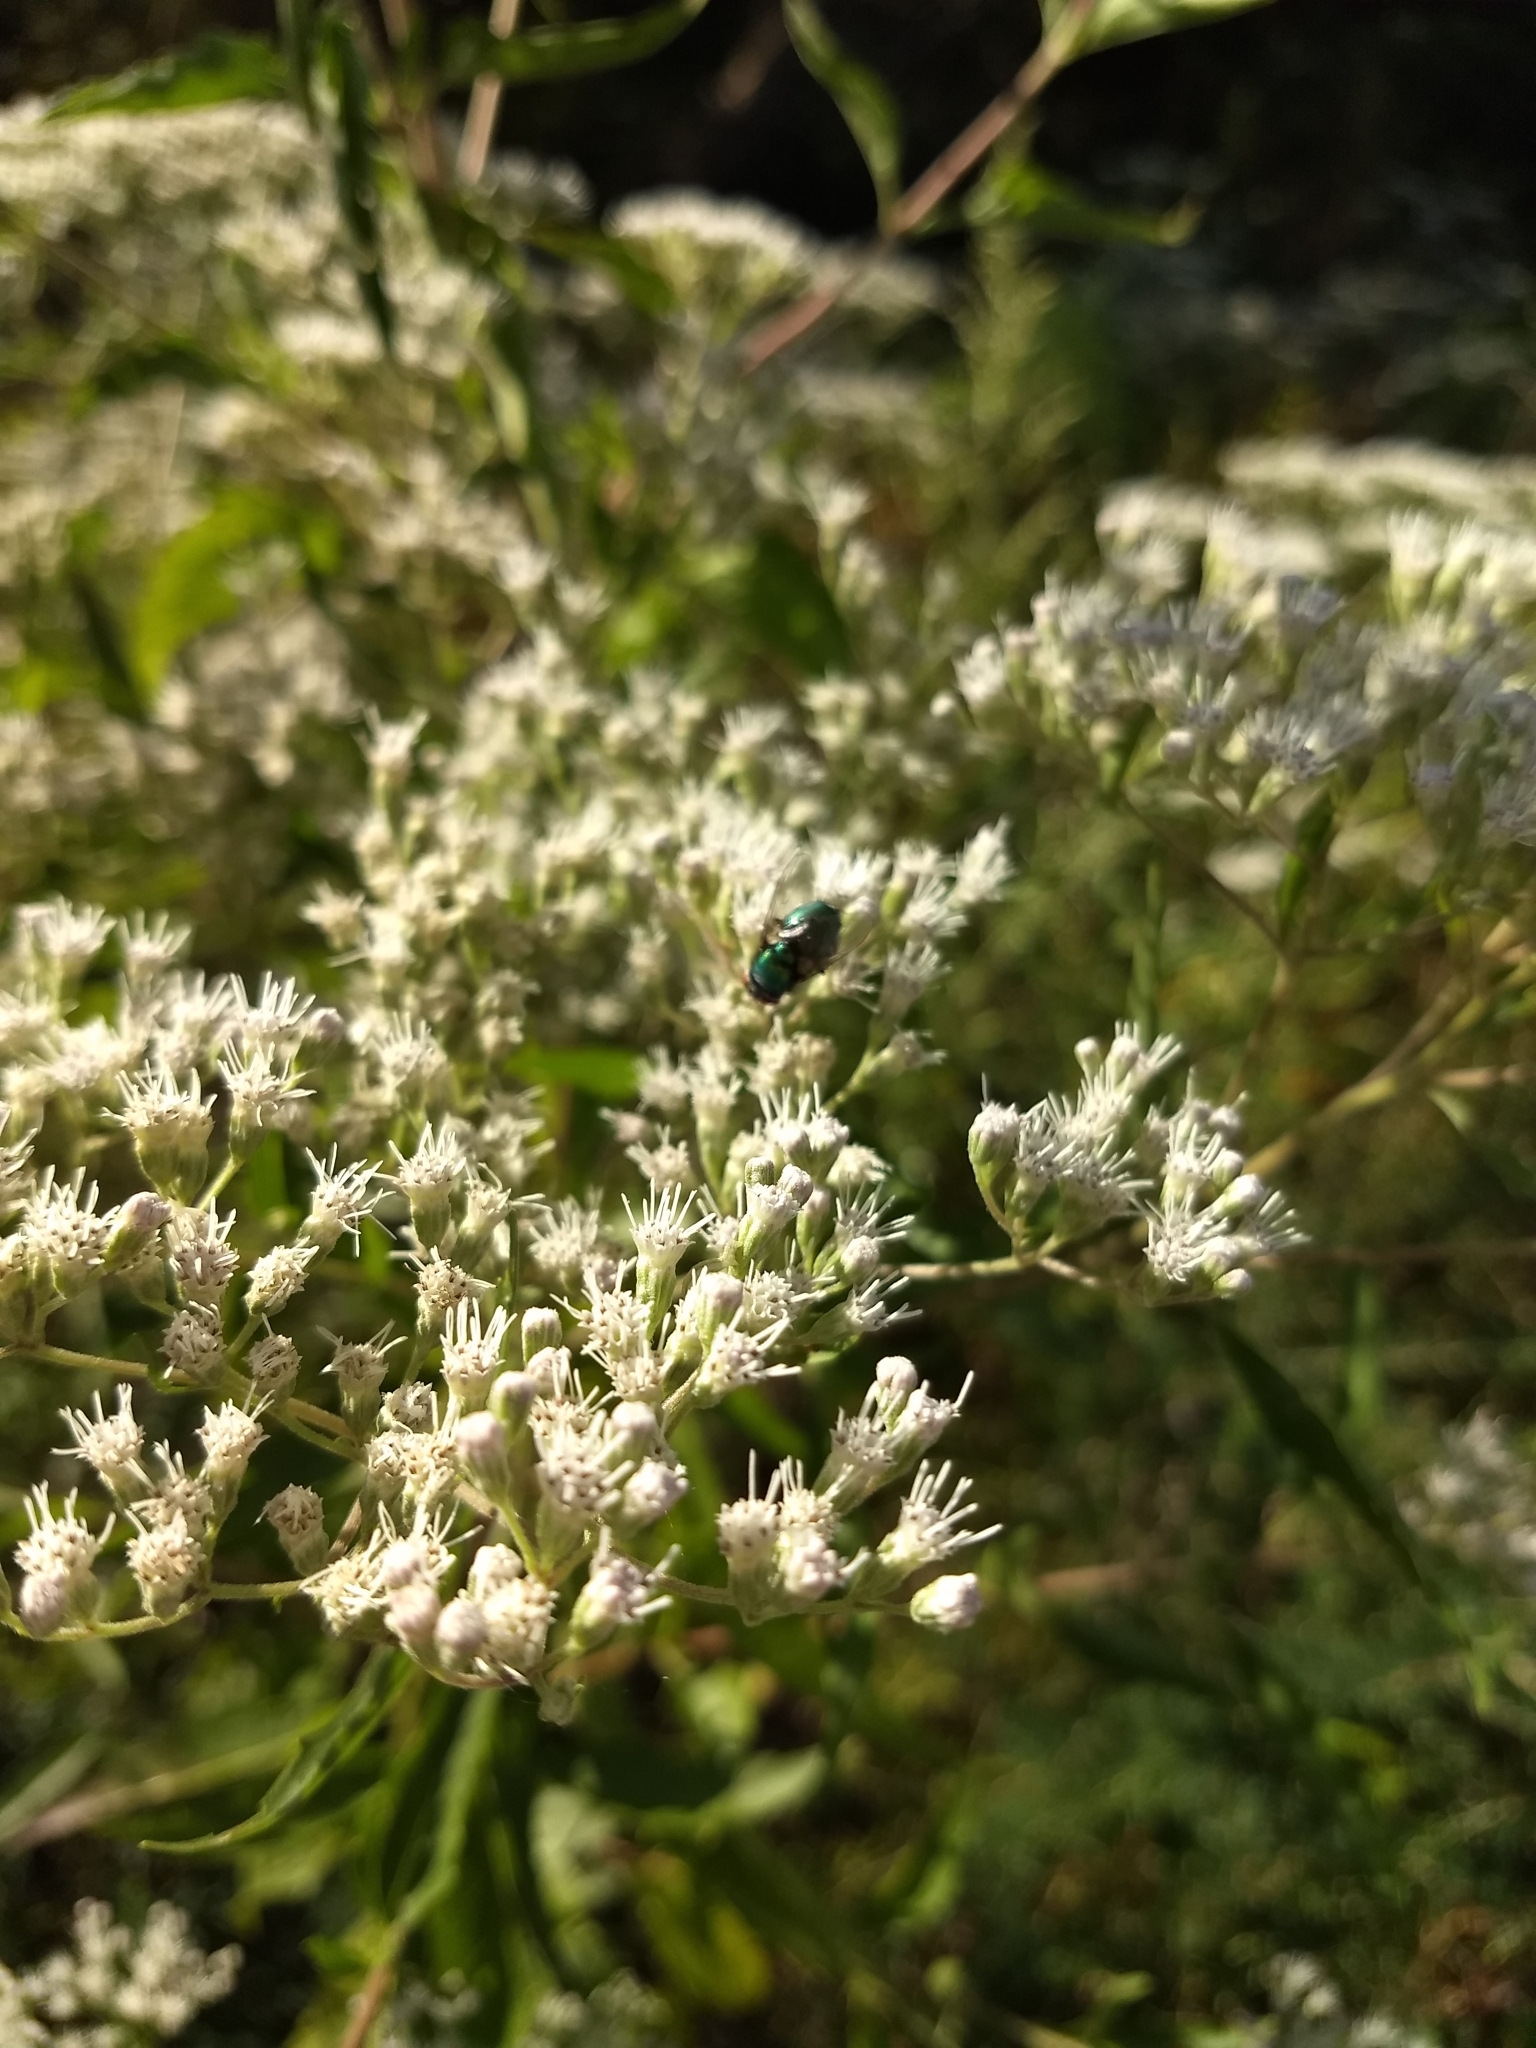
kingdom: Plantae
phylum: Tracheophyta
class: Magnoliopsida
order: Asterales
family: Asteraceae
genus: Eupatorium
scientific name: Eupatorium serotinum
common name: Late boneset
